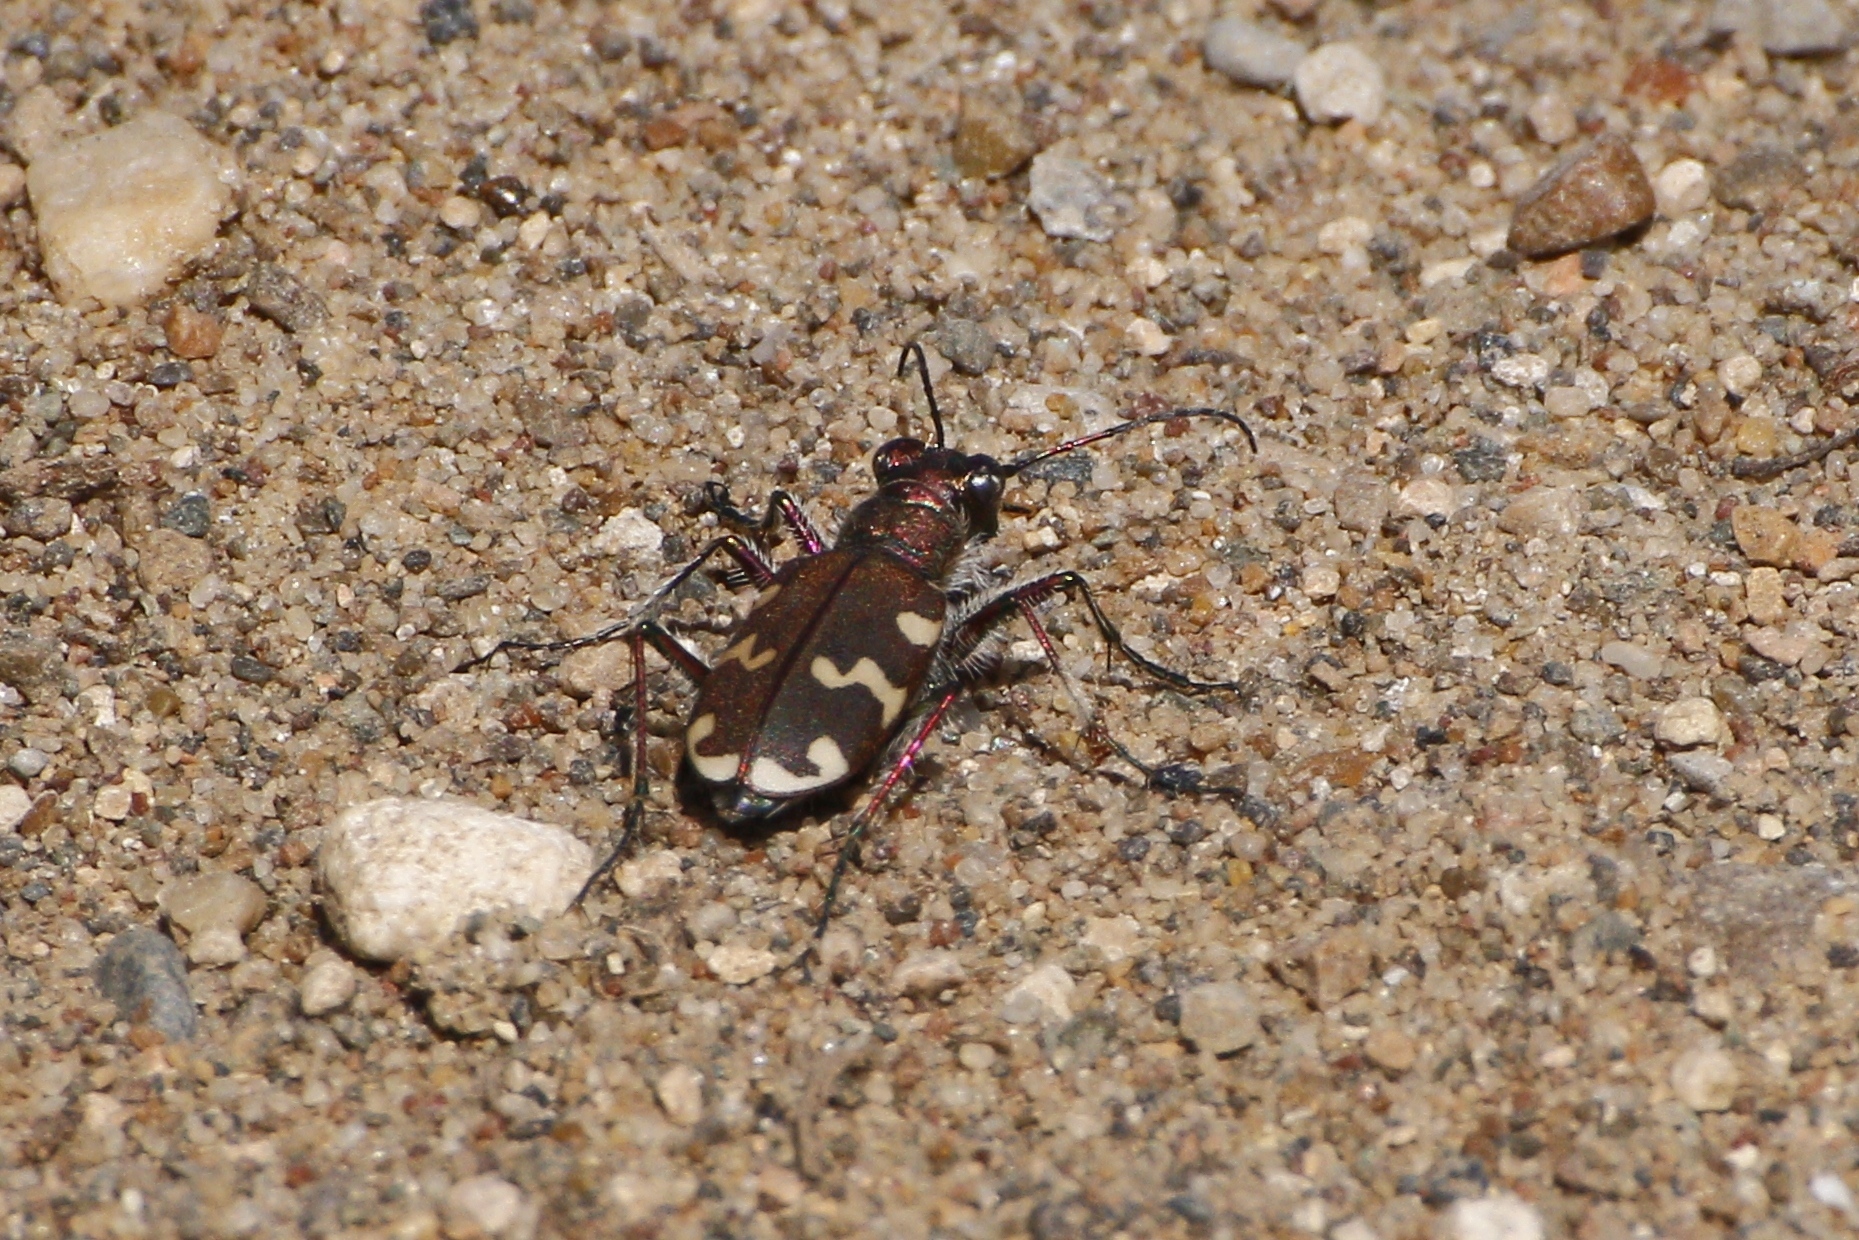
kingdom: Animalia
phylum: Arthropoda
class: Insecta
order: Coleoptera
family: Carabidae
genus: Cicindela
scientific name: Cicindela hybrida
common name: Northern dune tiger beetle
